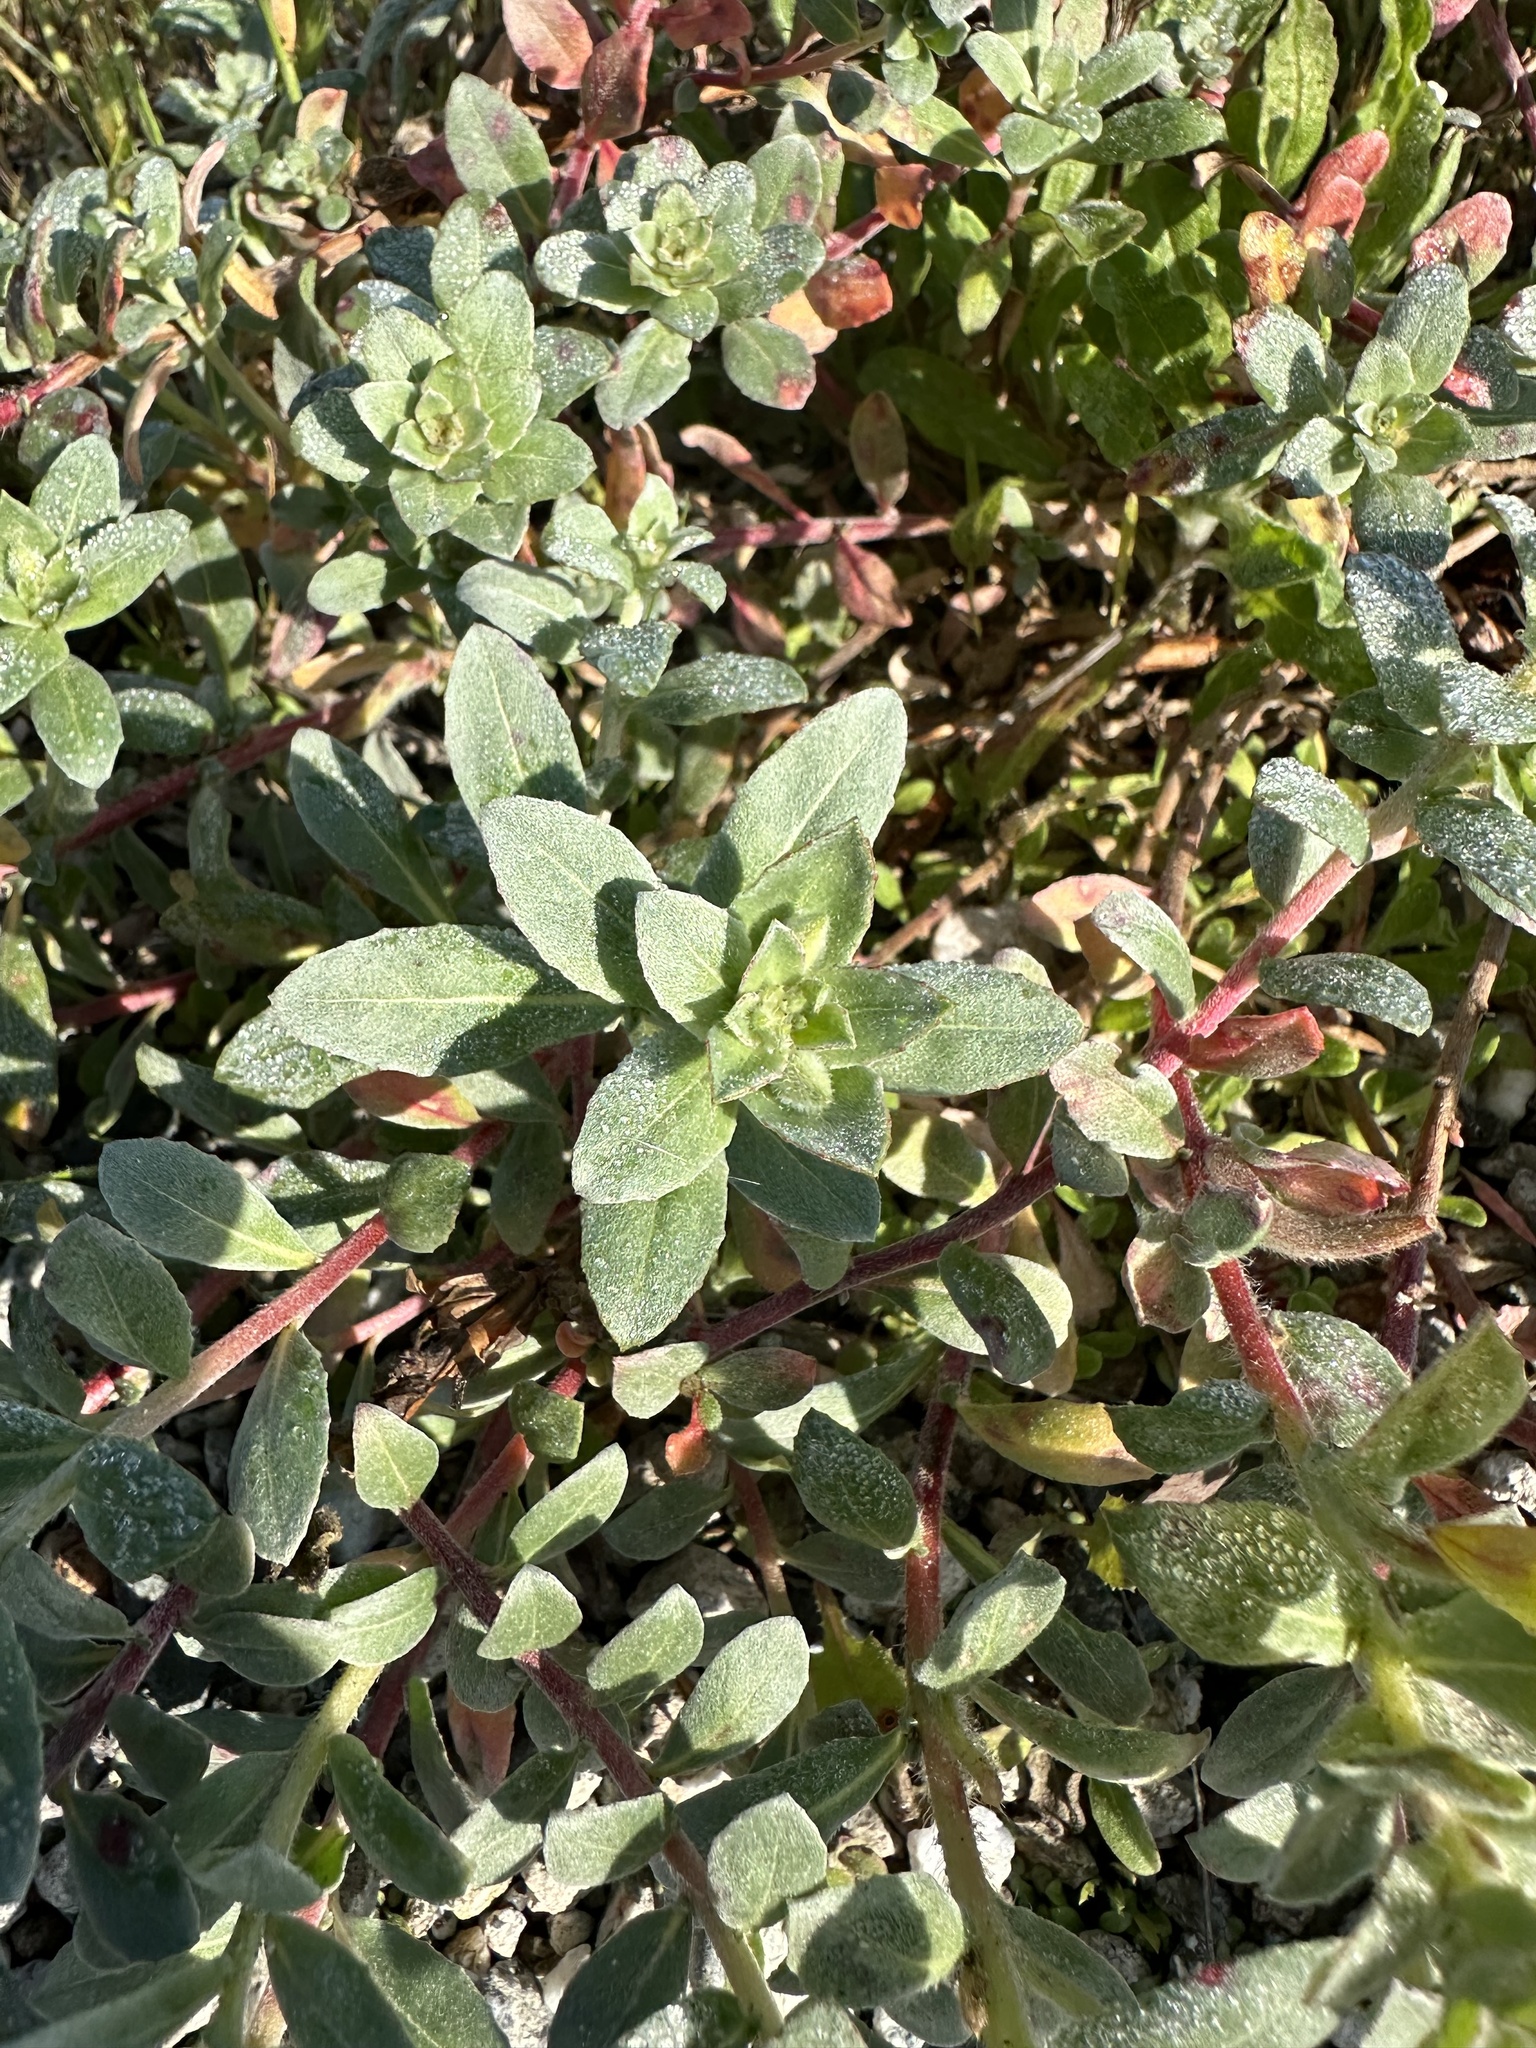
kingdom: Plantae
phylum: Tracheophyta
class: Magnoliopsida
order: Myrtales
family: Onagraceae
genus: Camissoniopsis
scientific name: Camissoniopsis cheiranthifolia
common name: Beach suncup
